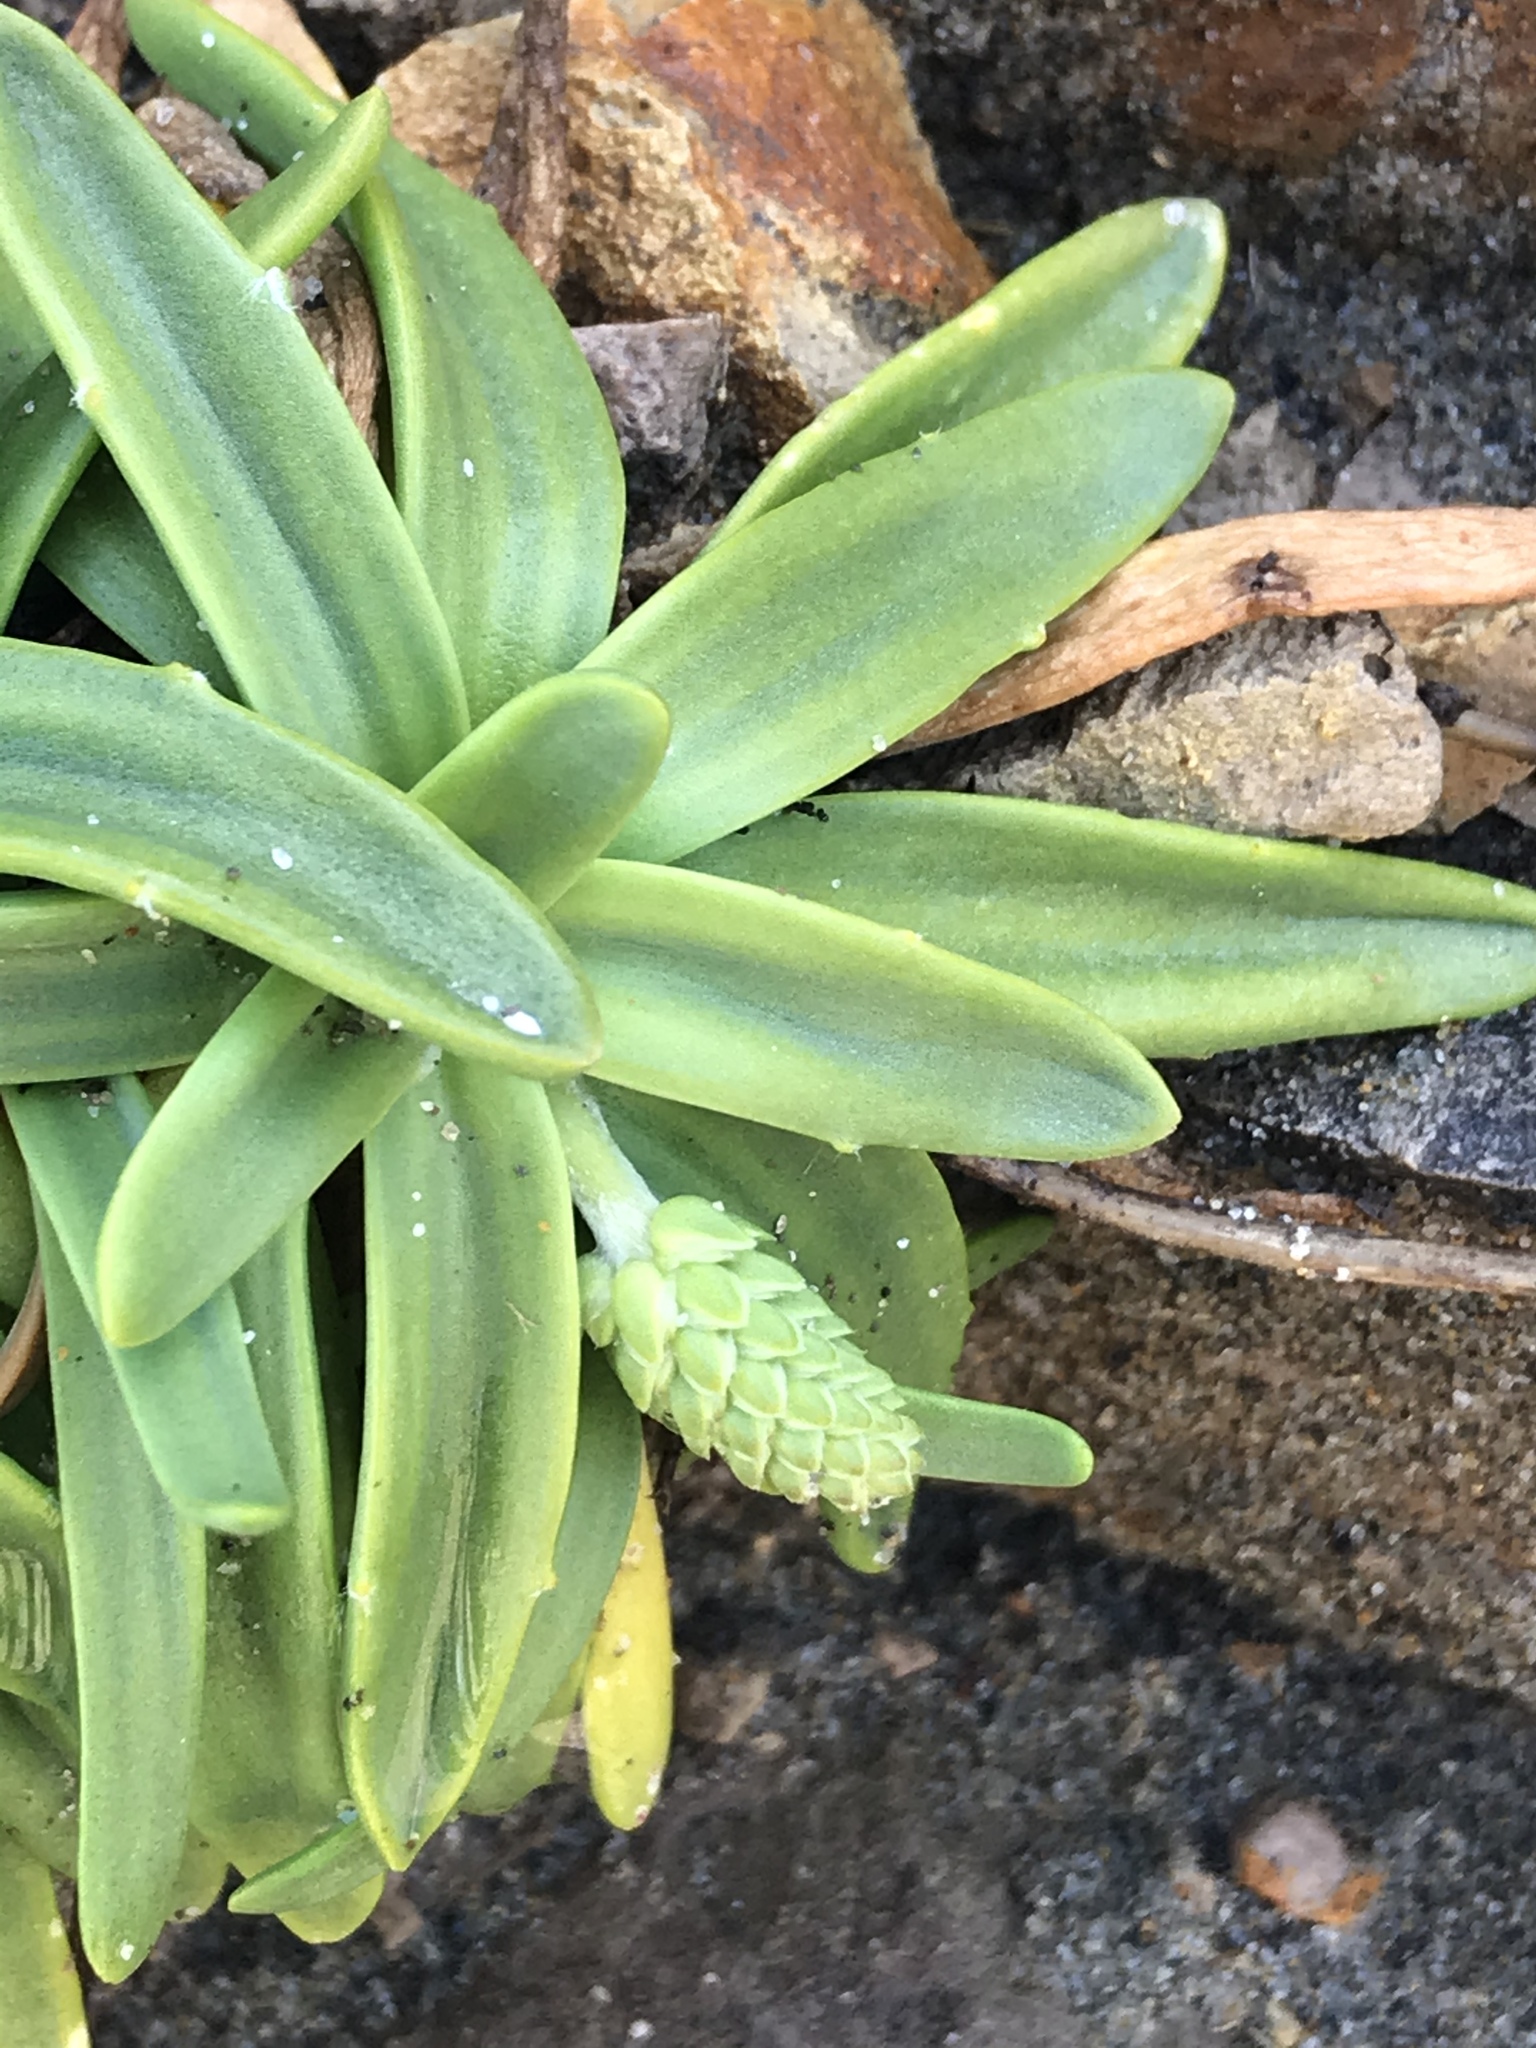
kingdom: Plantae
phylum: Tracheophyta
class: Magnoliopsida
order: Lamiales
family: Plantaginaceae
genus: Plantago
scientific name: Plantago maritima
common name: Sea plantain
